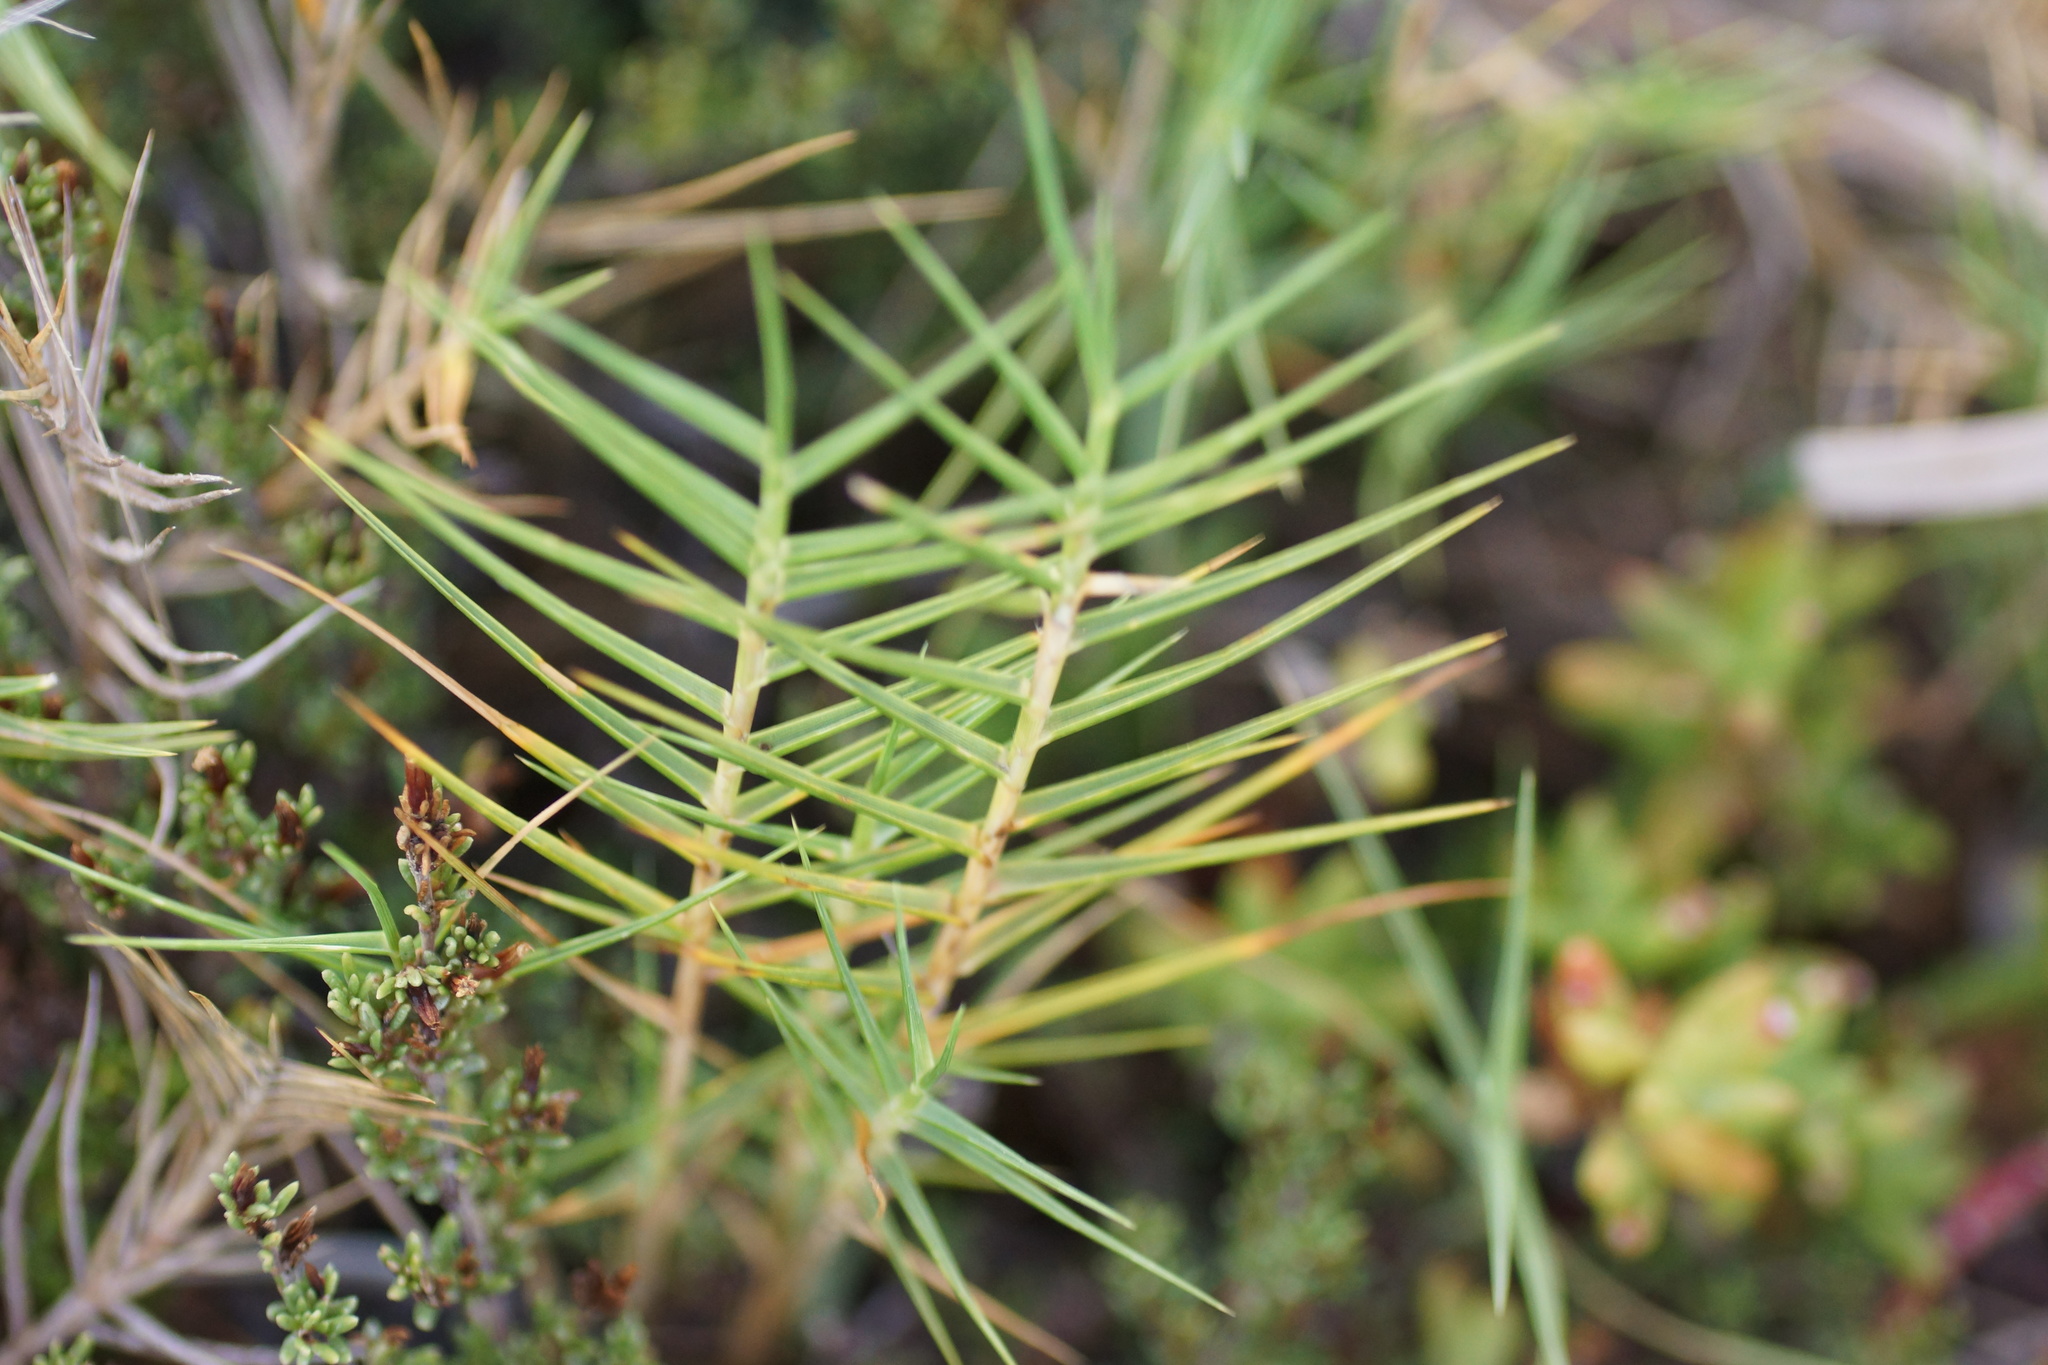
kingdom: Plantae
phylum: Tracheophyta
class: Liliopsida
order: Poales
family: Poaceae
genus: Distichlis
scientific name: Distichlis distichophylla
